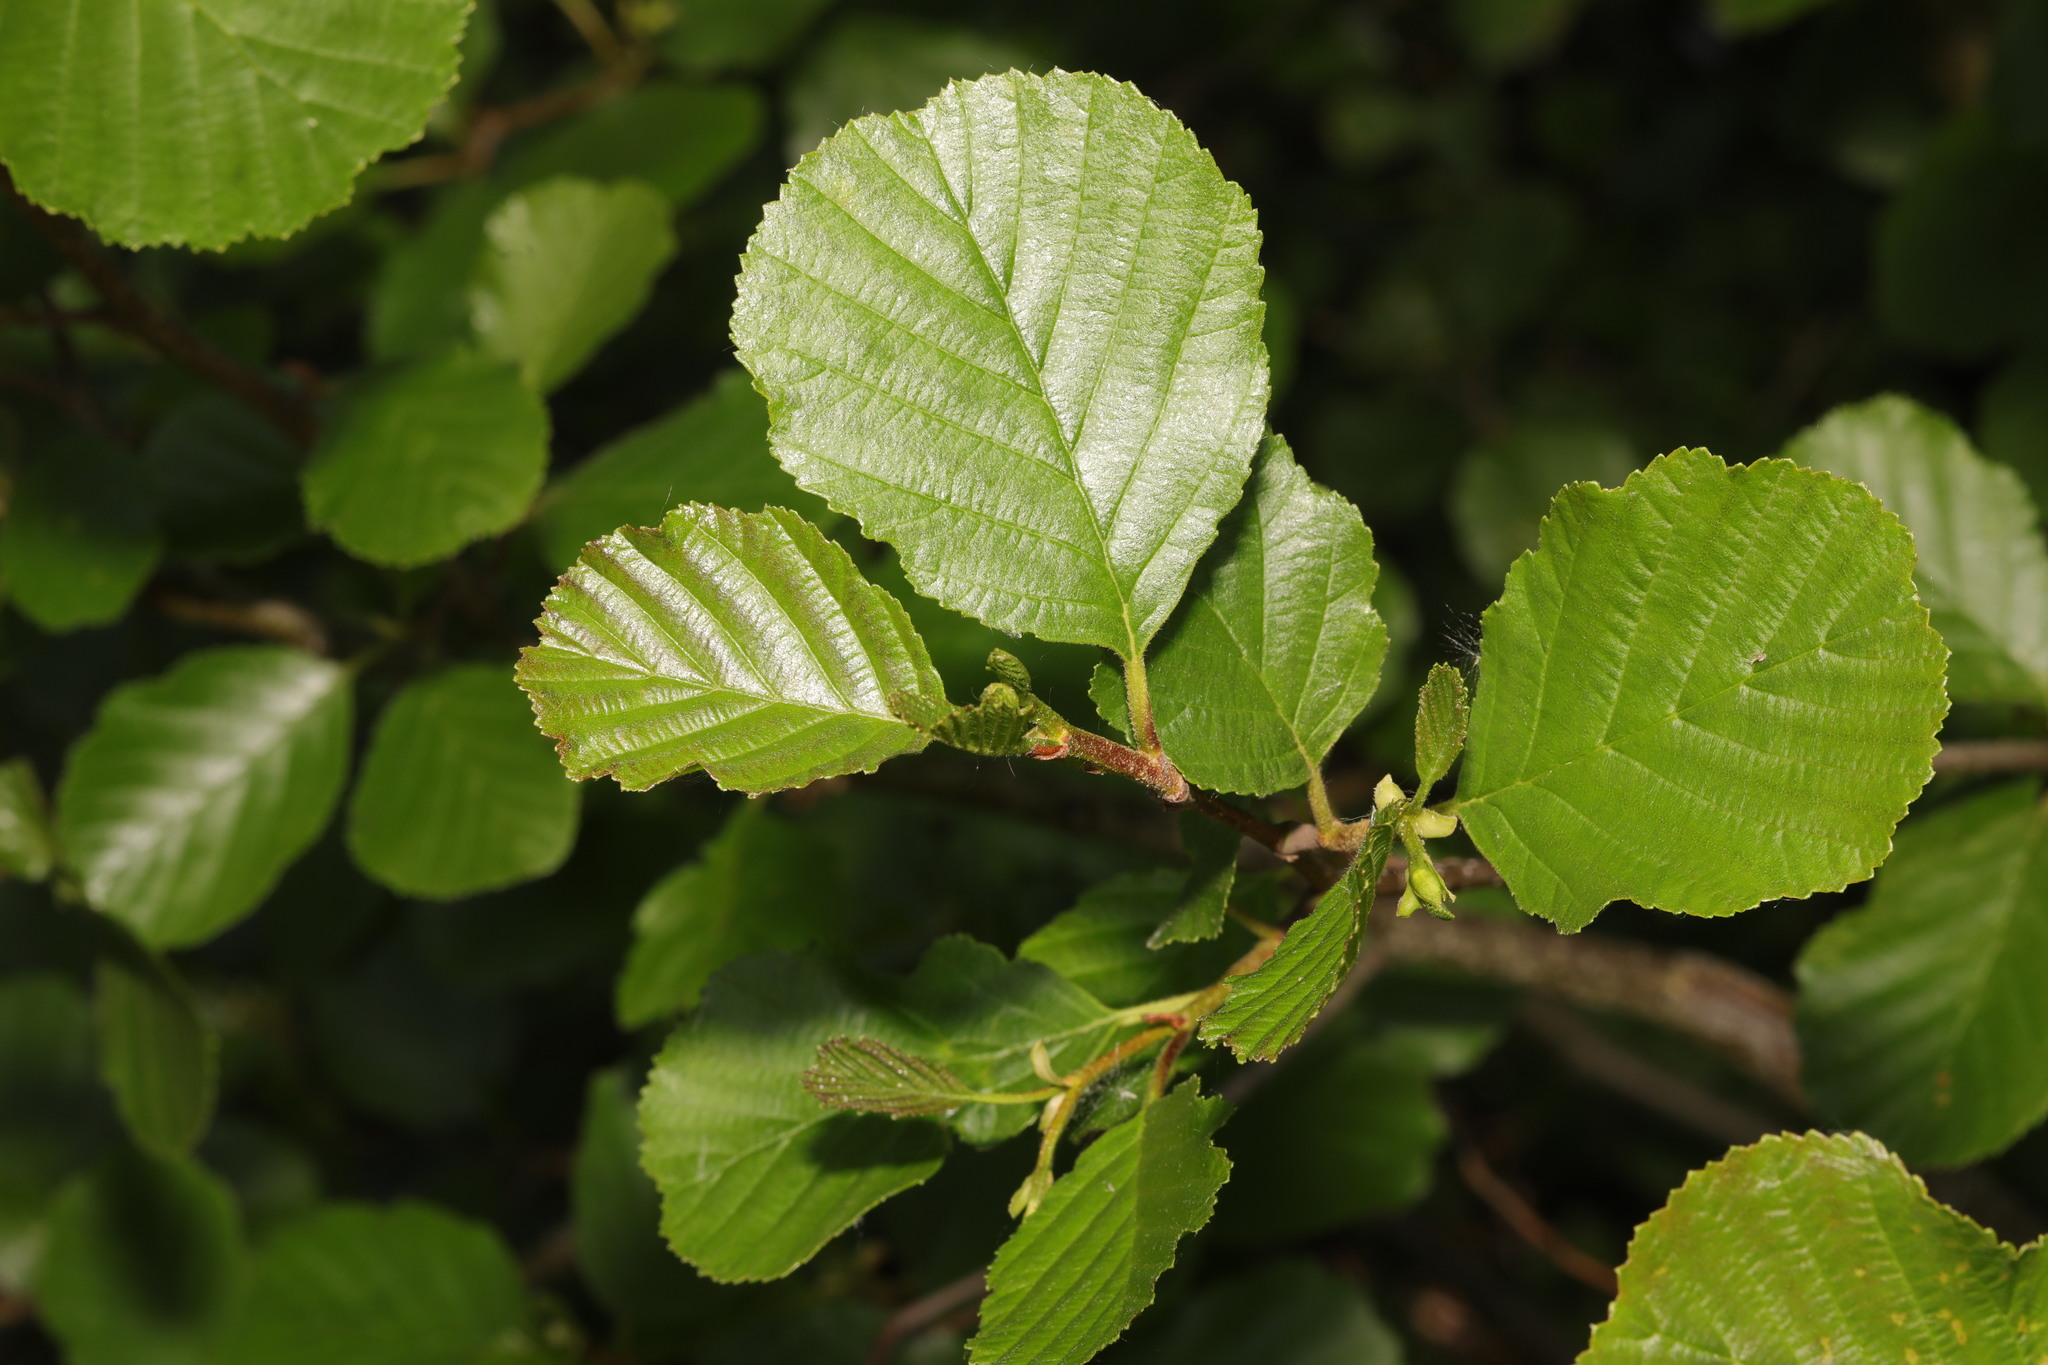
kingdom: Plantae
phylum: Tracheophyta
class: Magnoliopsida
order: Fagales
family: Betulaceae
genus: Alnus
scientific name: Alnus glutinosa
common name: Black alder
